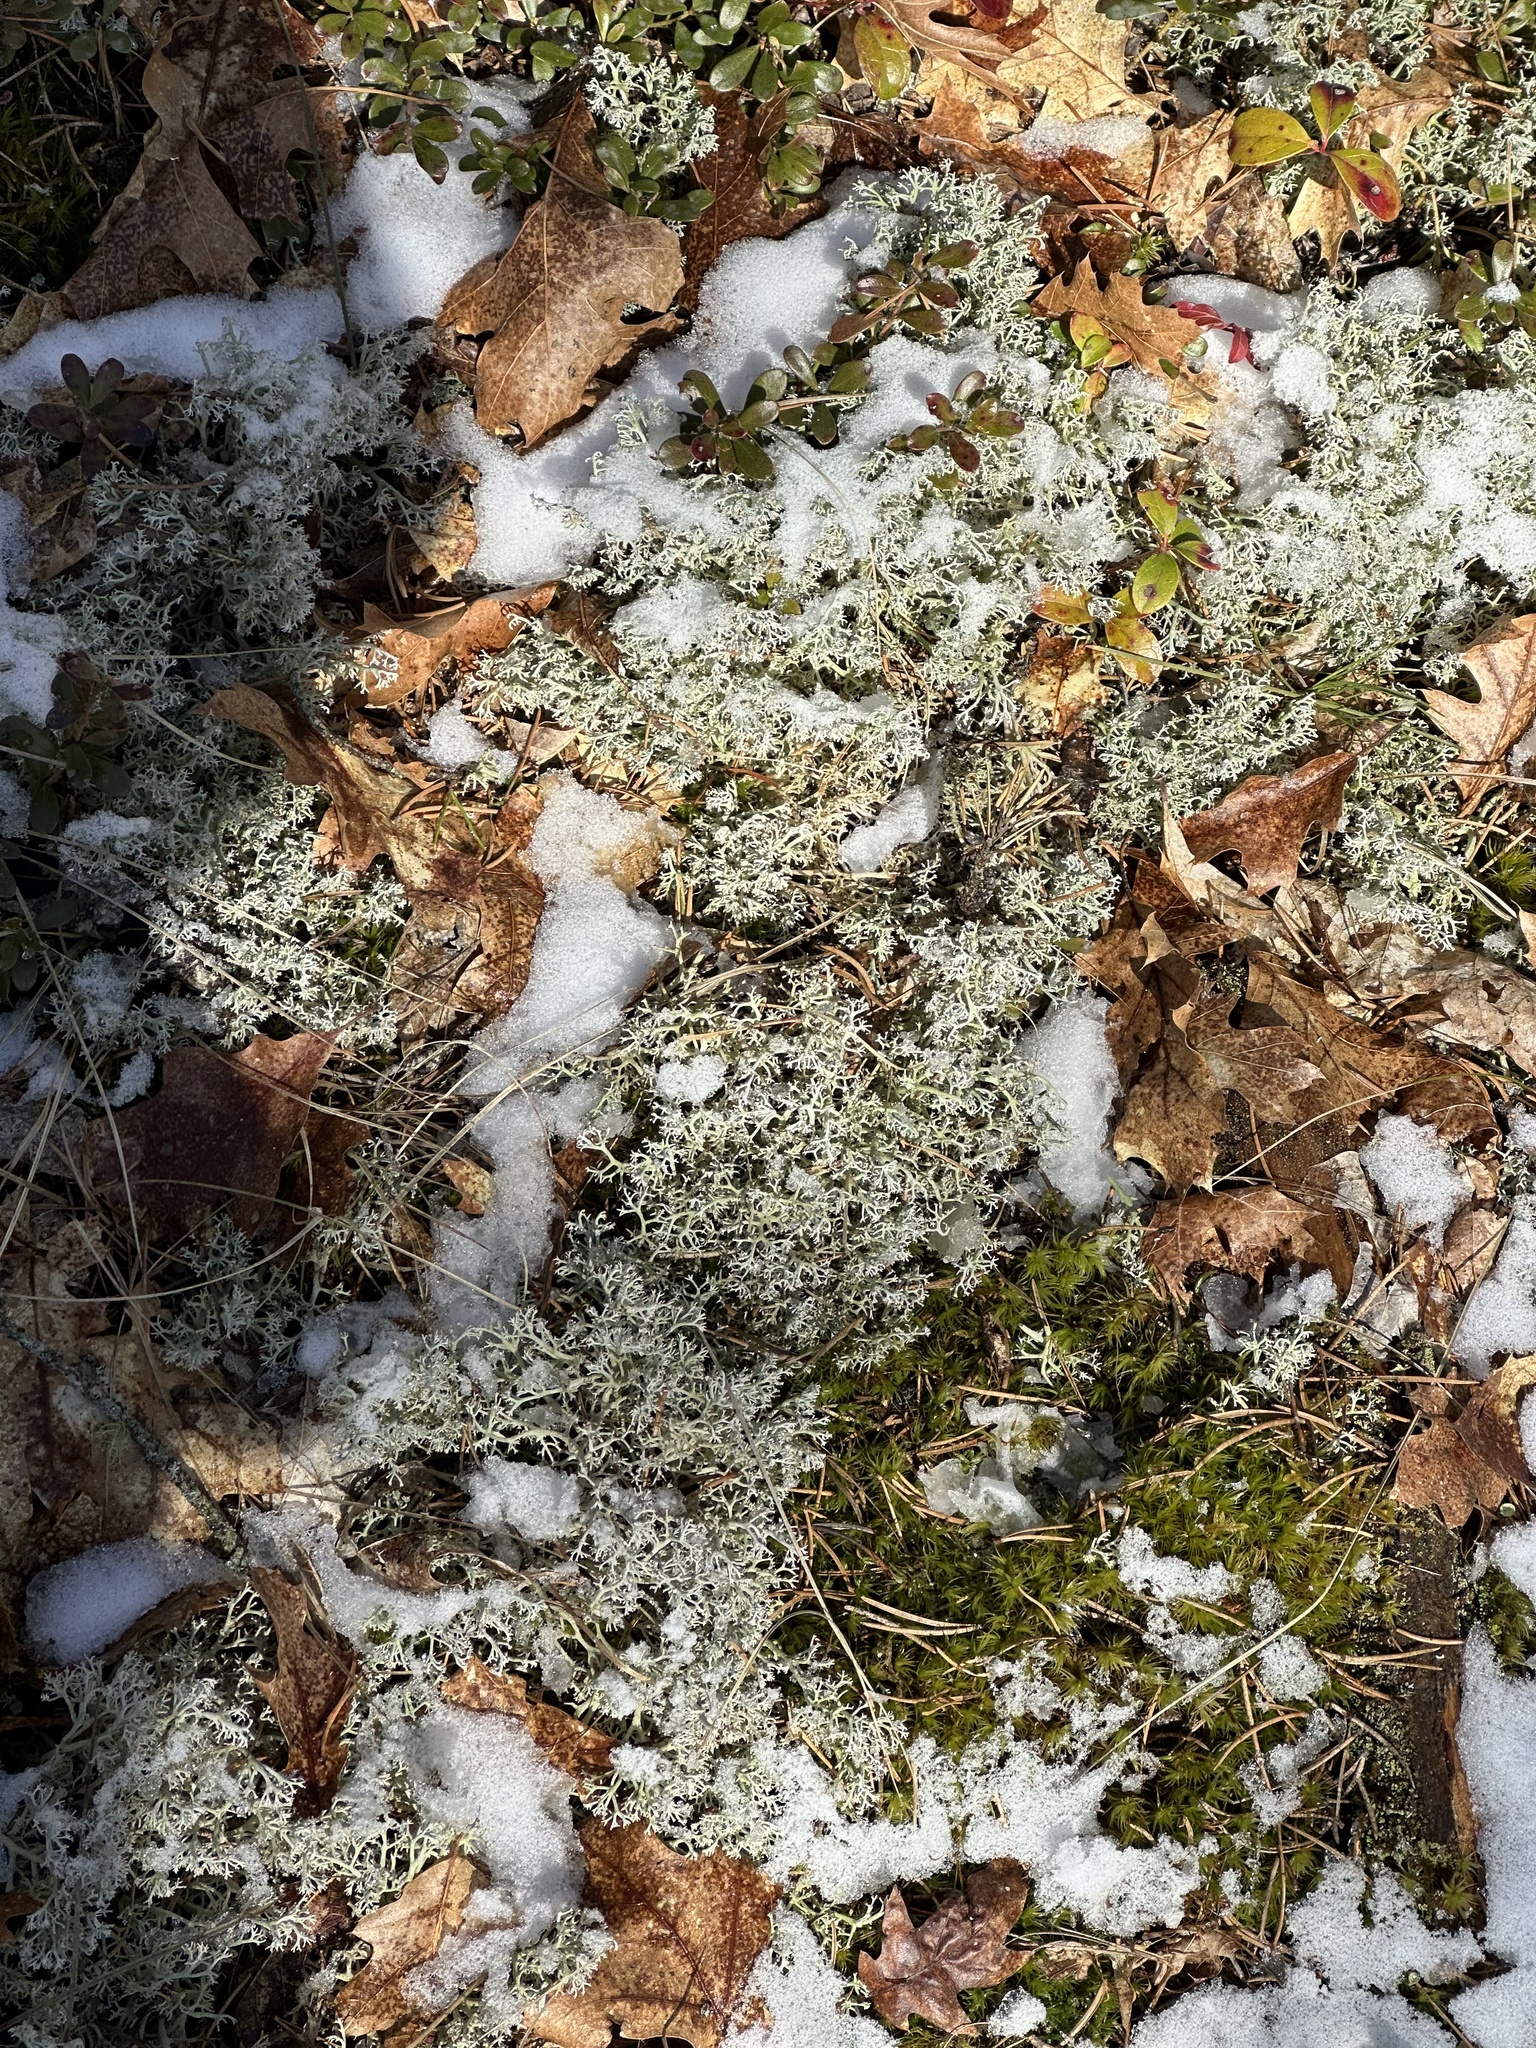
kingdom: Fungi
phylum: Ascomycota
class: Lecanoromycetes
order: Lecanorales
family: Cladoniaceae
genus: Cladonia
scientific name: Cladonia rangiferina
